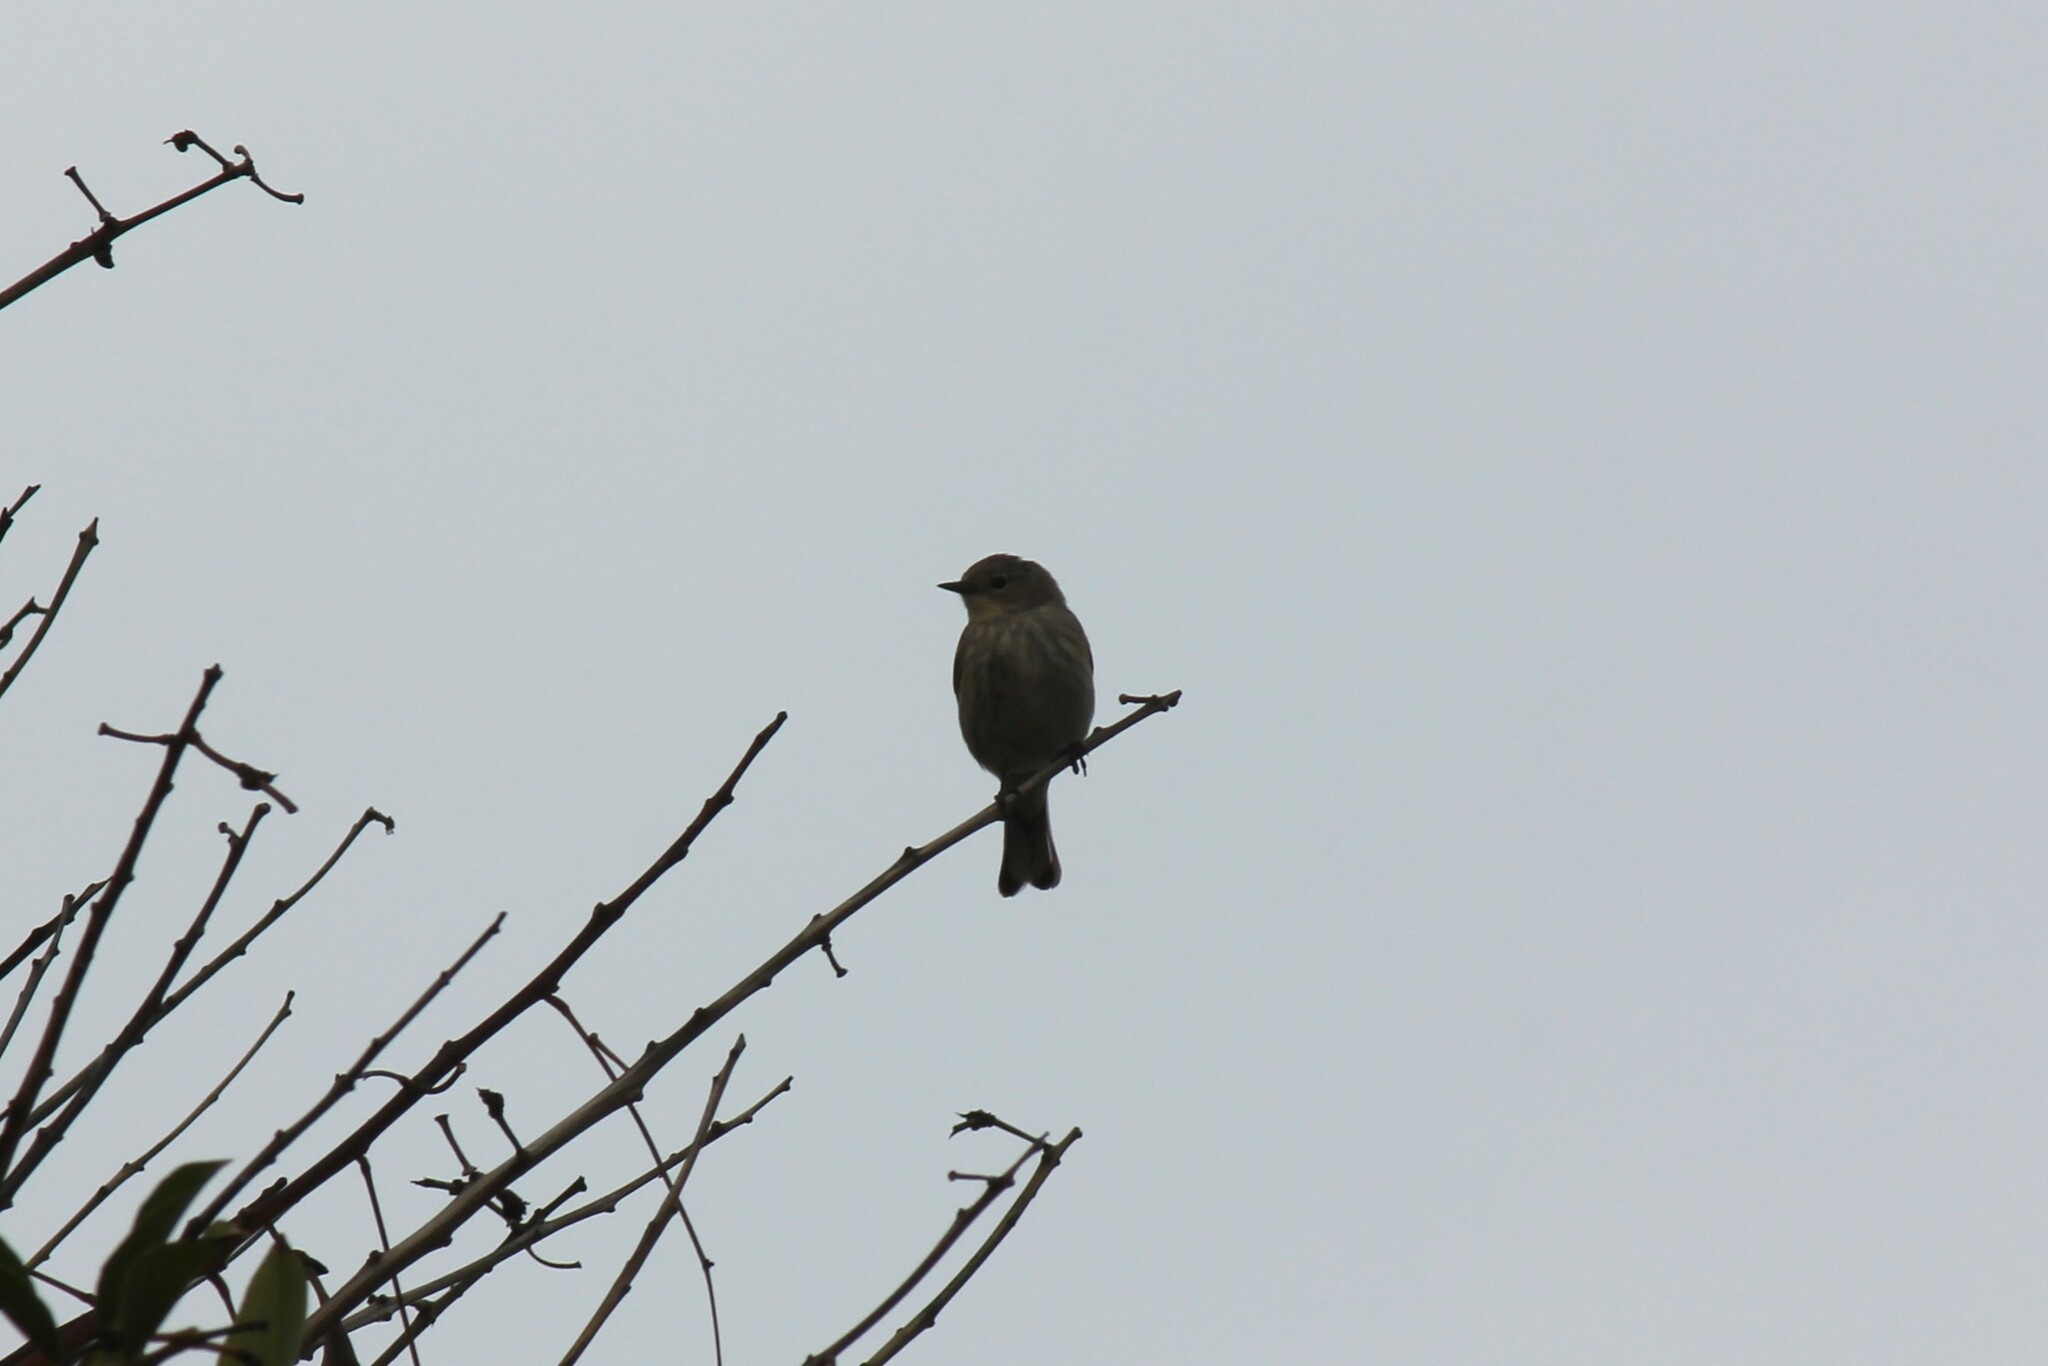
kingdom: Animalia
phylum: Chordata
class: Aves
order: Passeriformes
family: Parulidae
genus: Setophaga
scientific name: Setophaga coronata
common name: Myrtle warbler
